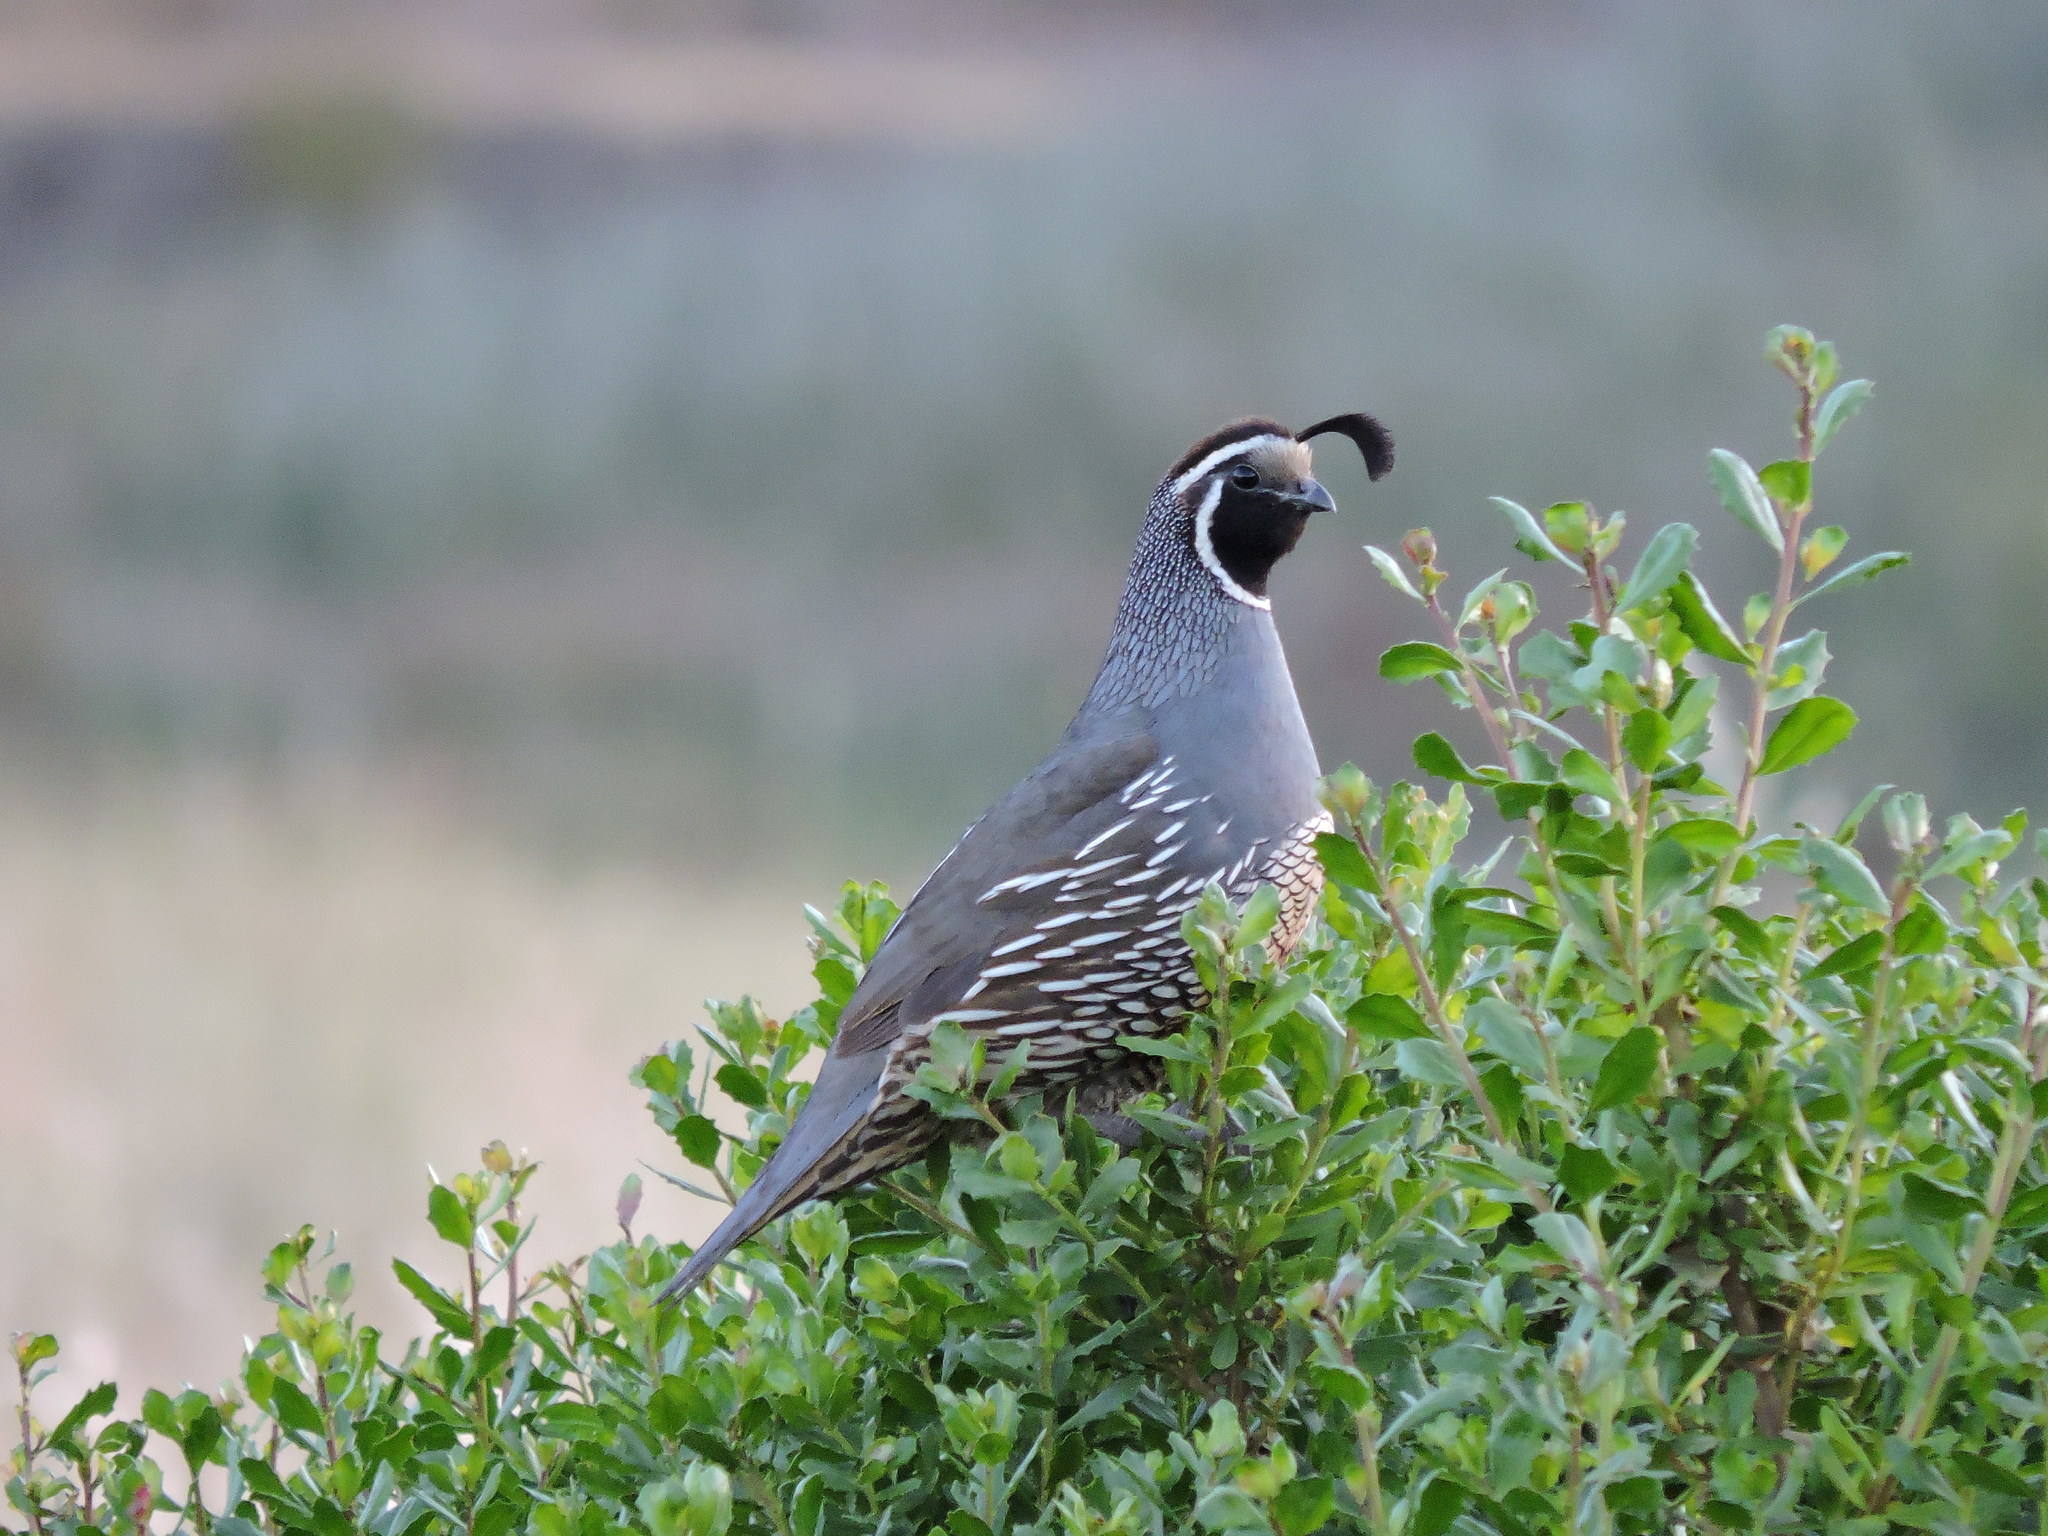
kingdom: Animalia
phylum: Chordata
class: Aves
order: Galliformes
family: Odontophoridae
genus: Callipepla
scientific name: Callipepla californica
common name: California quail
